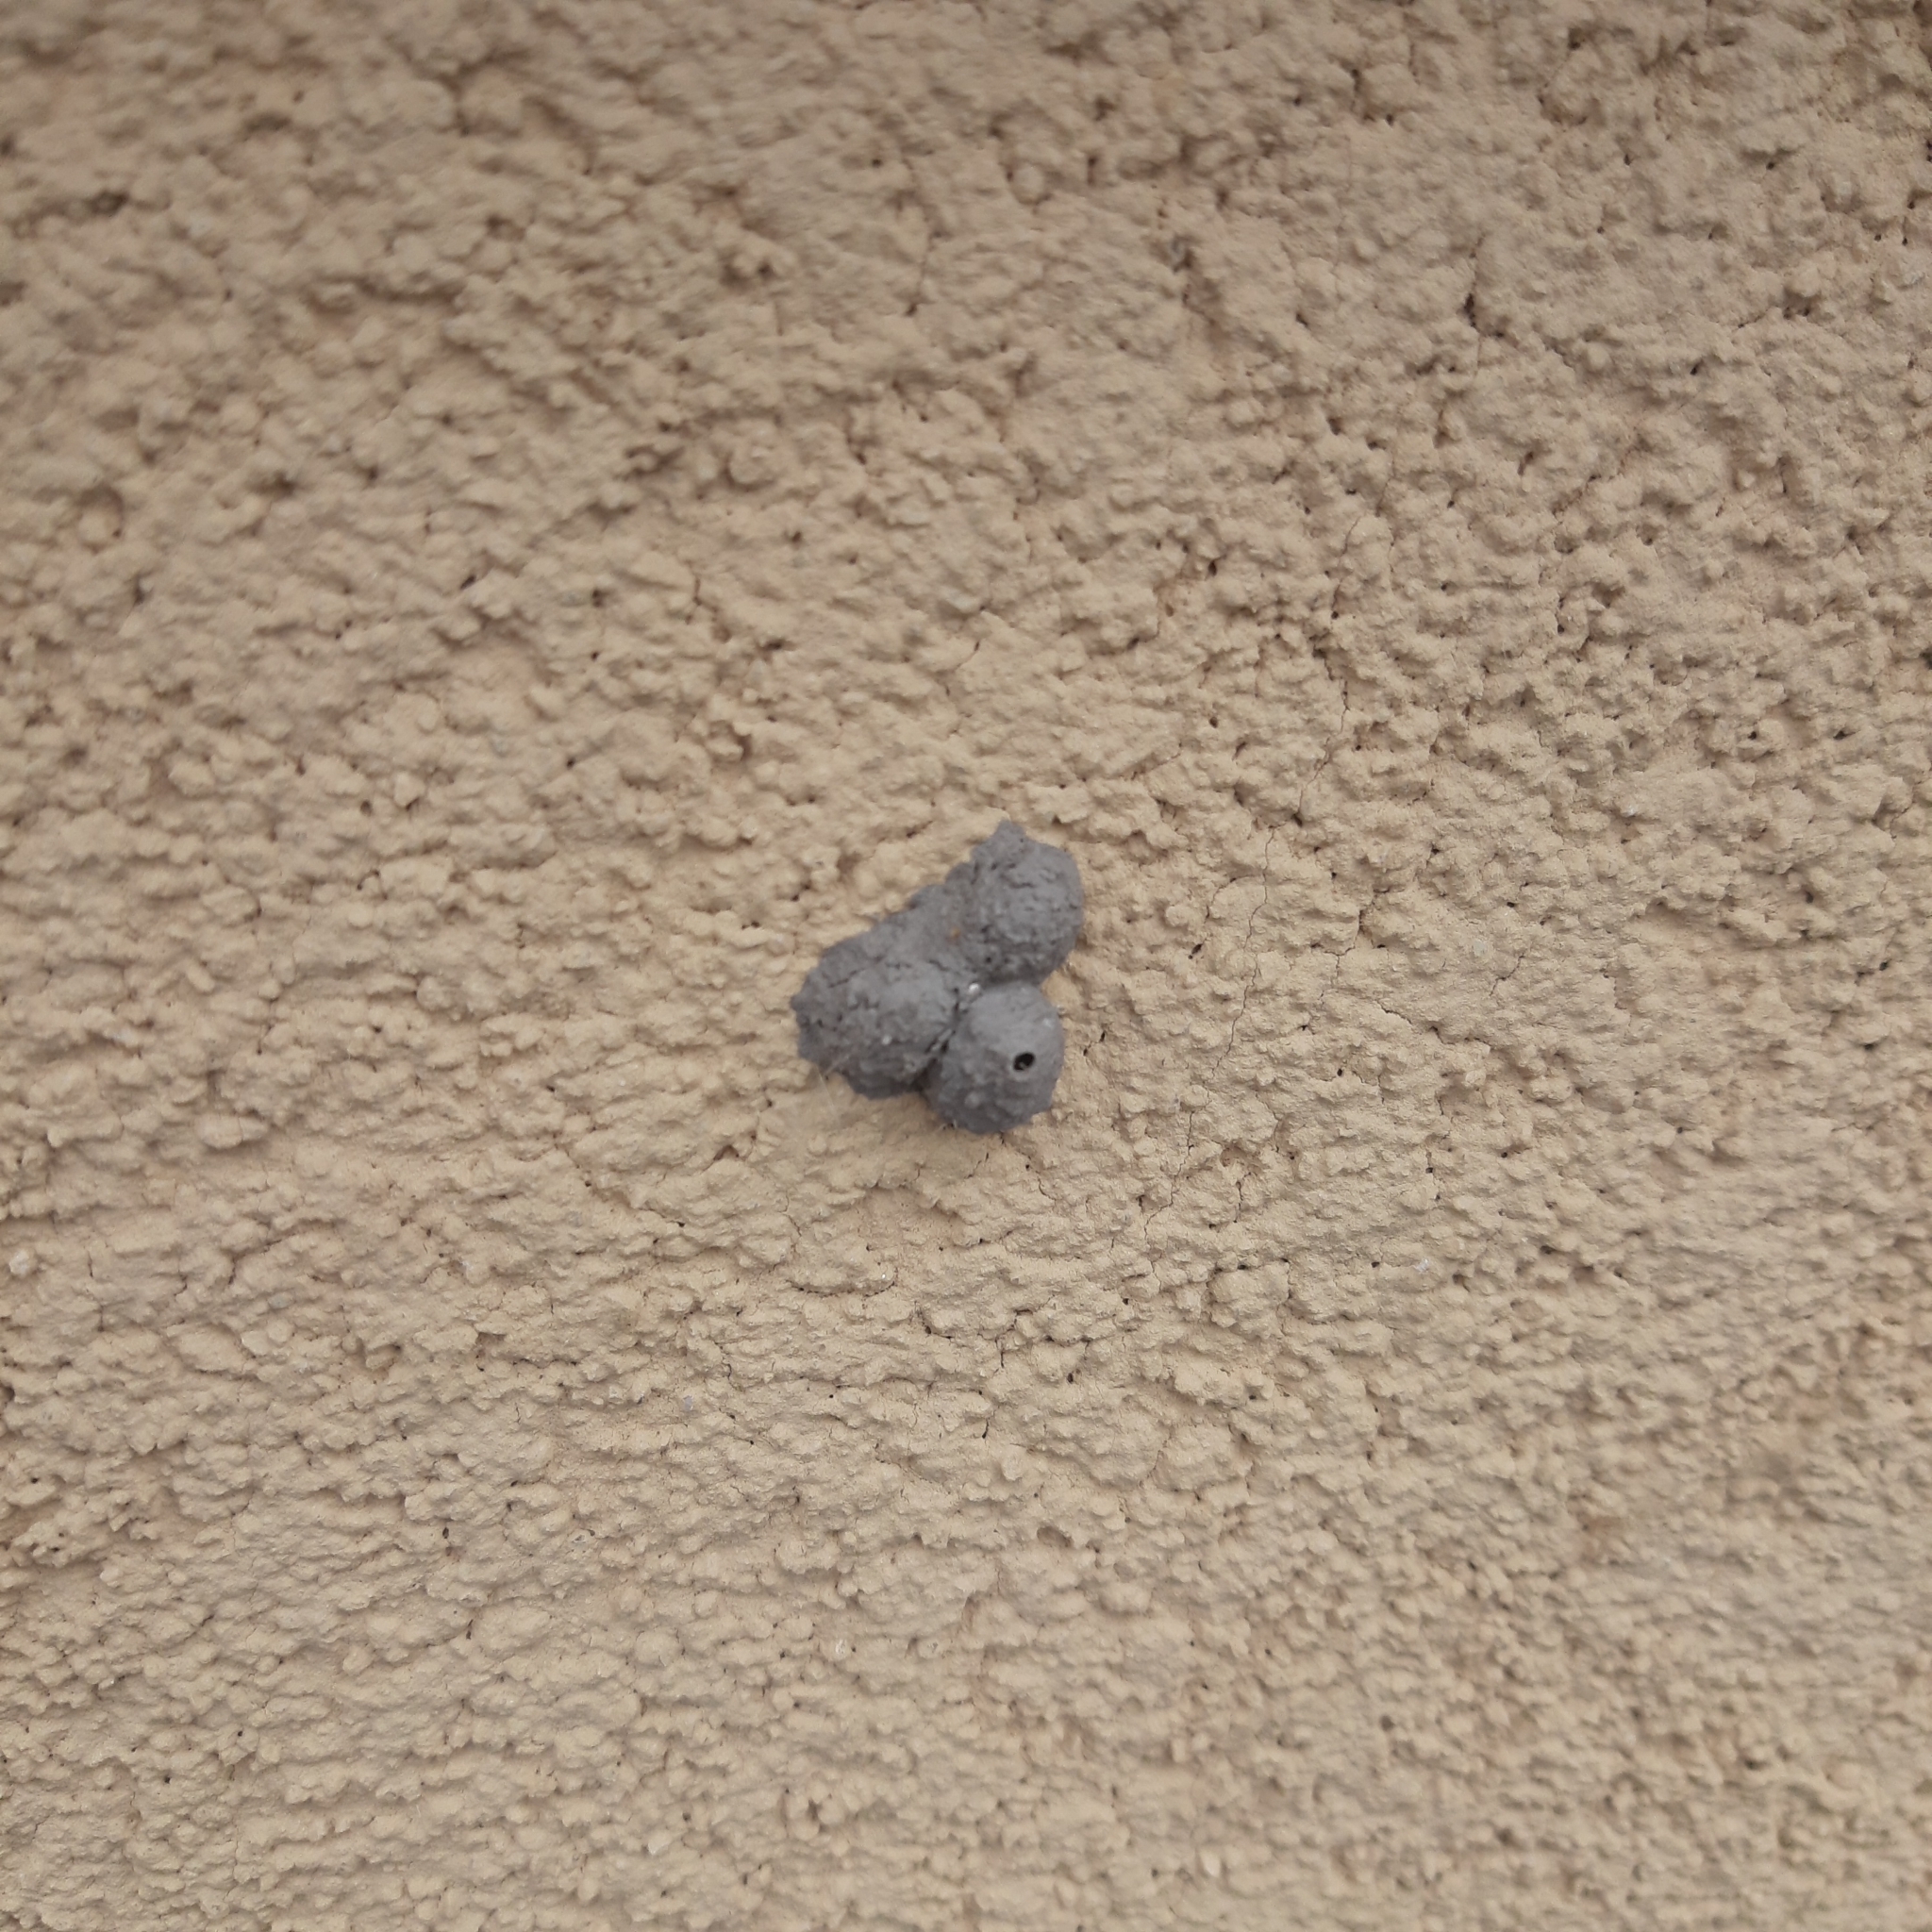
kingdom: Animalia
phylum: Arthropoda
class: Insecta
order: Hymenoptera
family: Eumenidae
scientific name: Eumenidae
